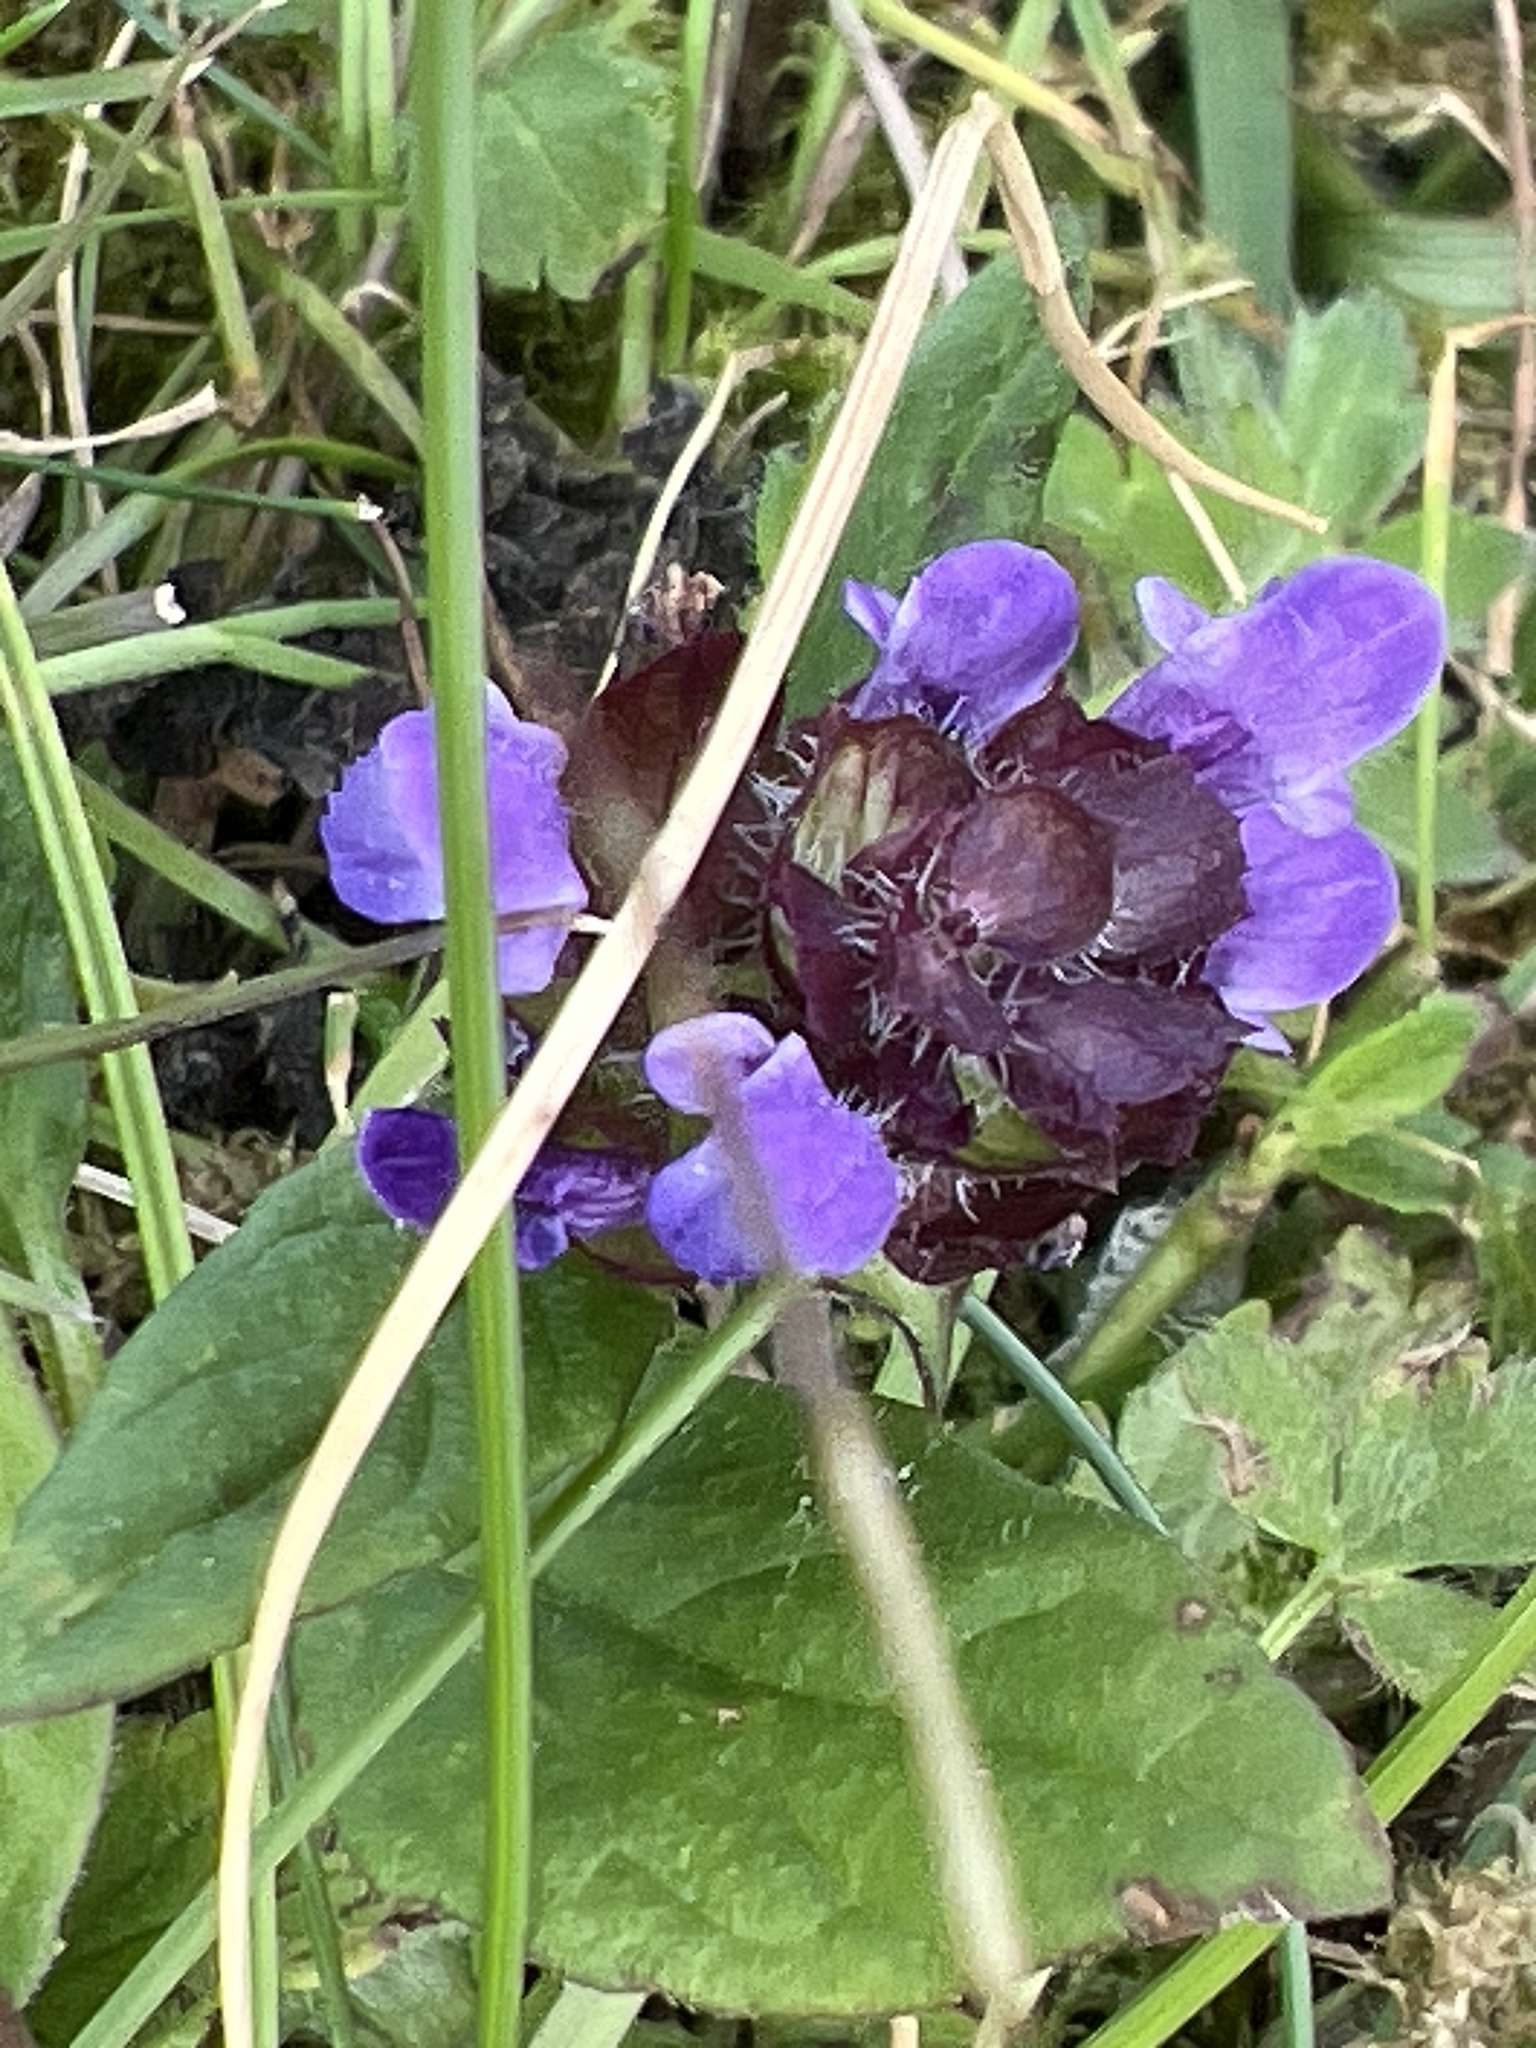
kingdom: Plantae
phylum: Tracheophyta
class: Magnoliopsida
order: Lamiales
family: Lamiaceae
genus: Prunella
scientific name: Prunella vulgaris
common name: Heal-all
